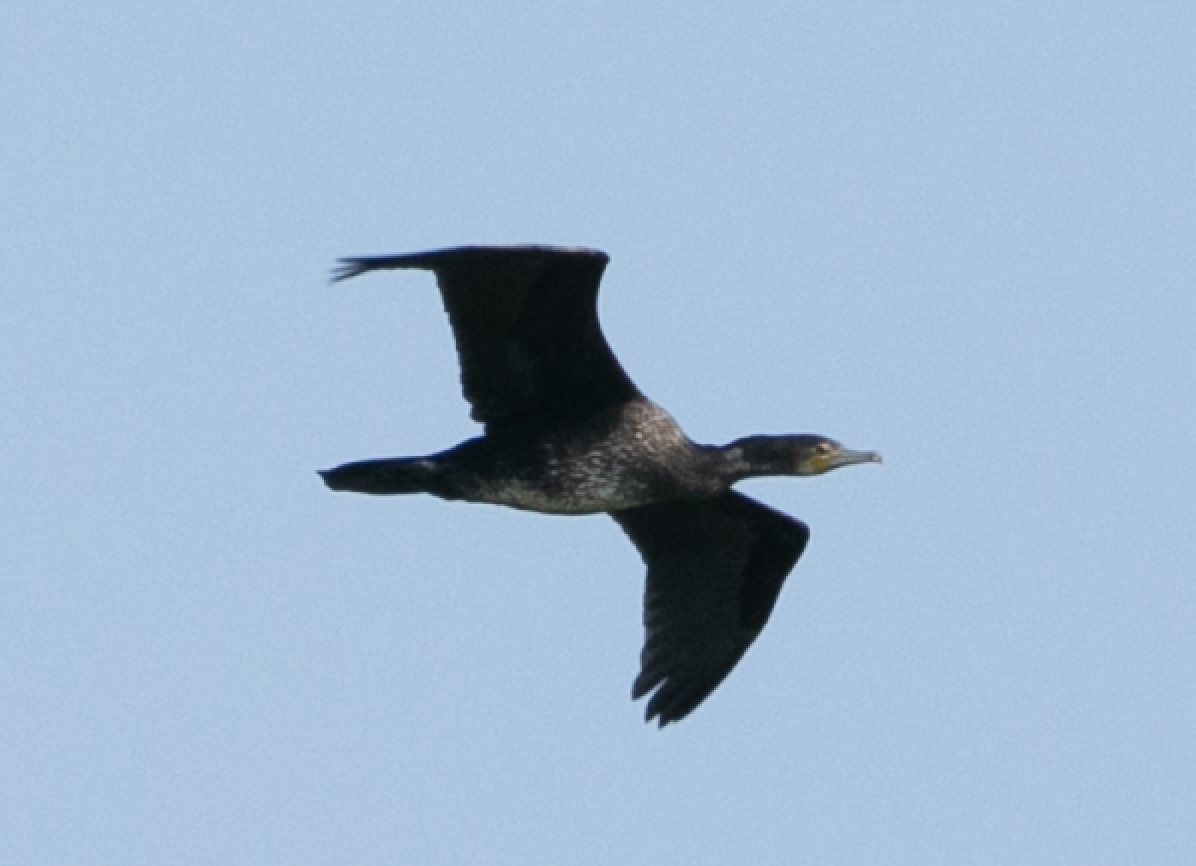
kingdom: Animalia
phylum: Chordata
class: Aves
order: Suliformes
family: Phalacrocoracidae
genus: Phalacrocorax
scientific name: Phalacrocorax carbo
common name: Great cormorant
